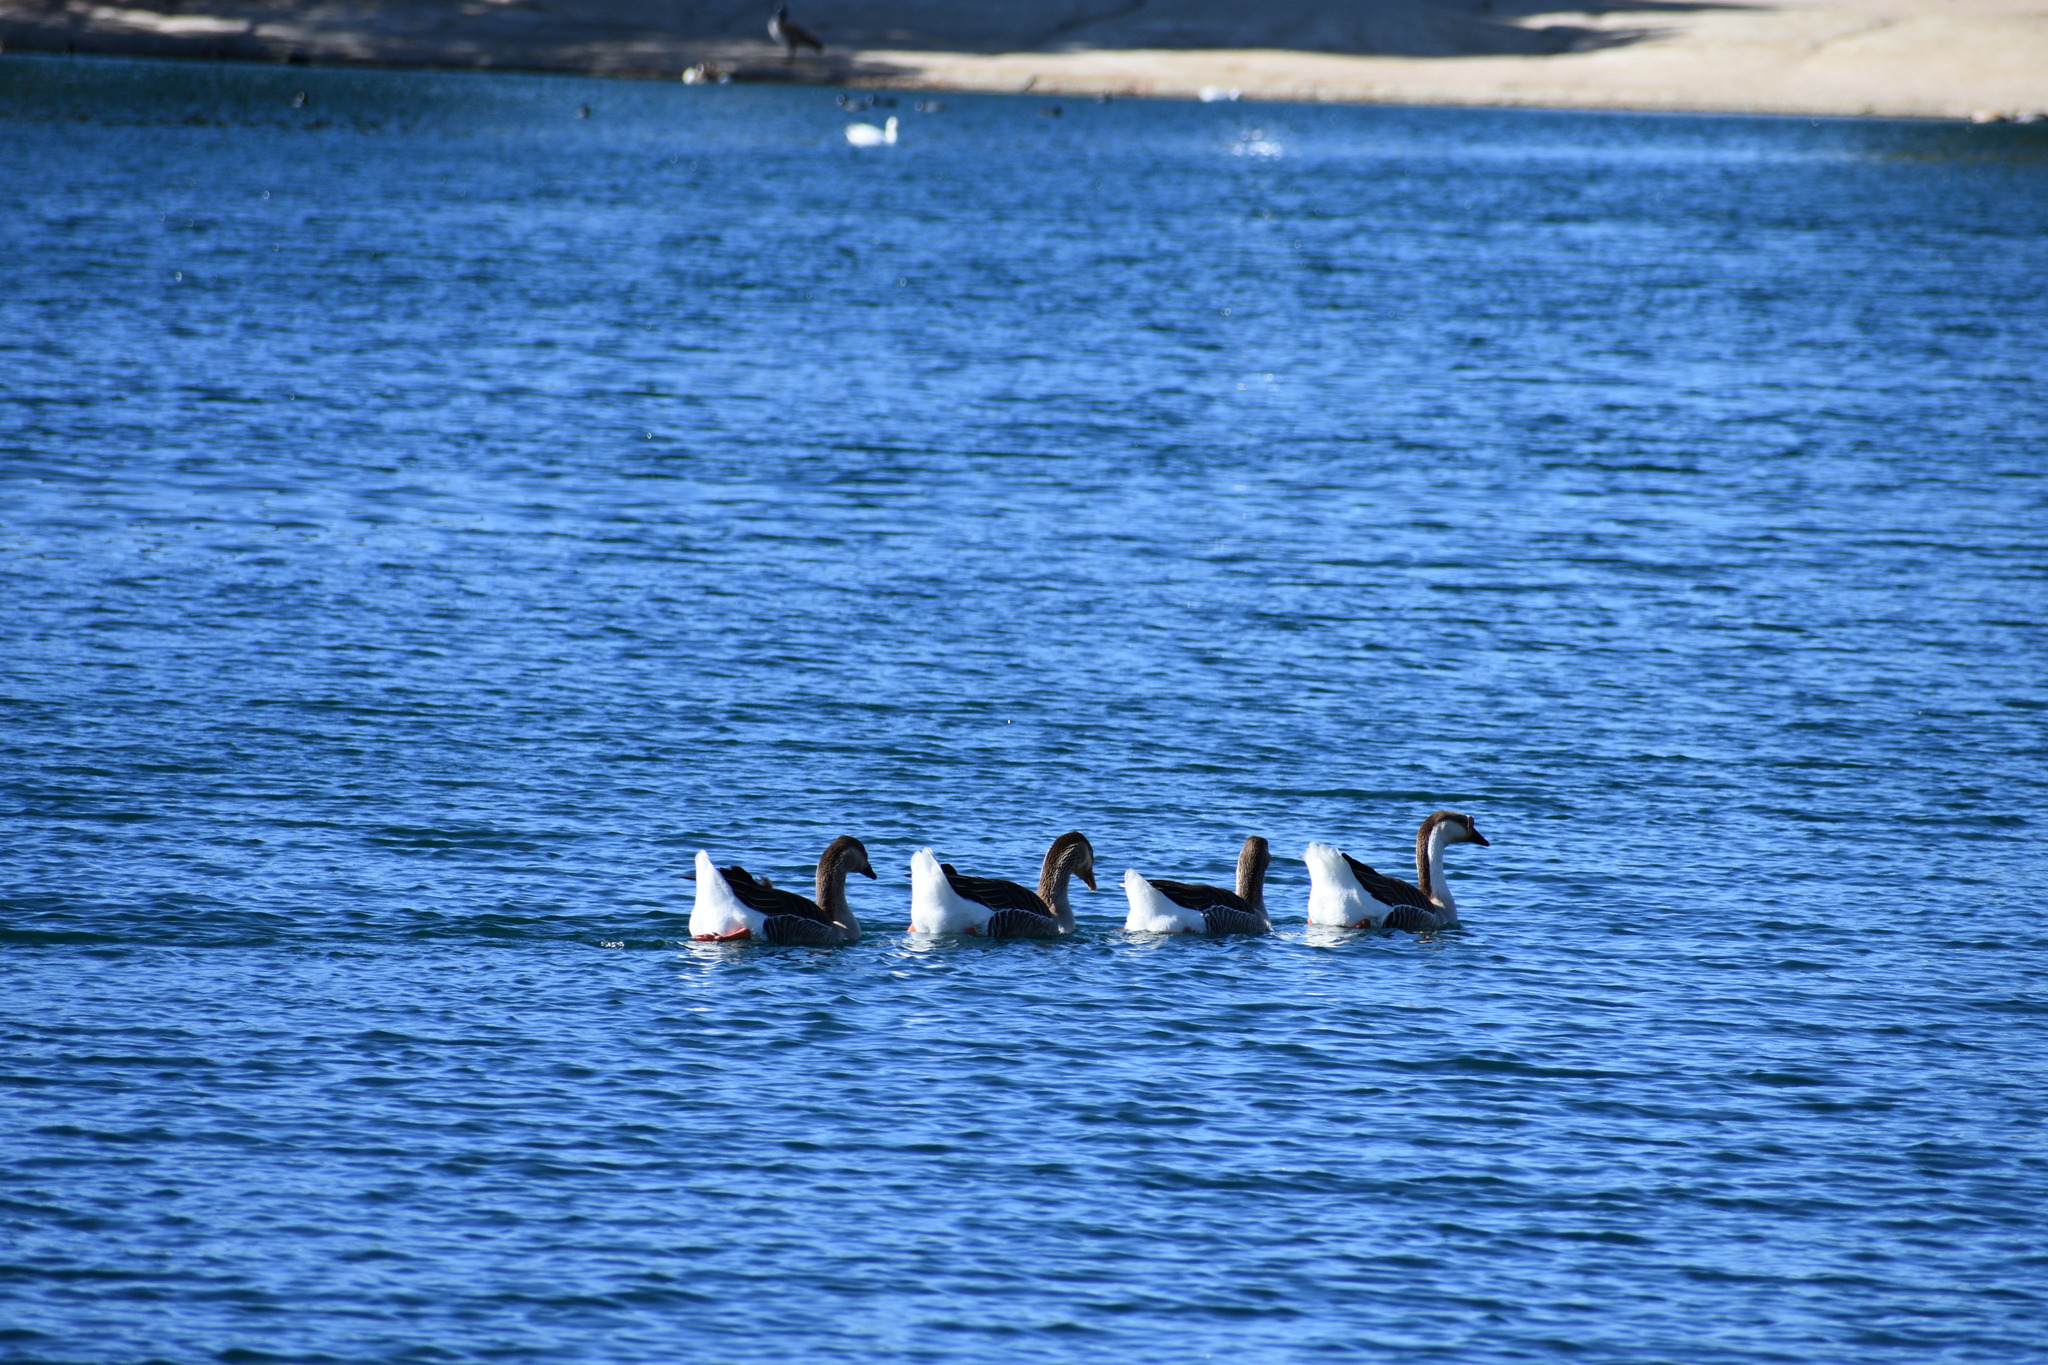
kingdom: Animalia
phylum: Chordata
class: Aves
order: Anseriformes
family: Anatidae
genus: Anser
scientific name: Anser cygnoides
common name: Swan goose
